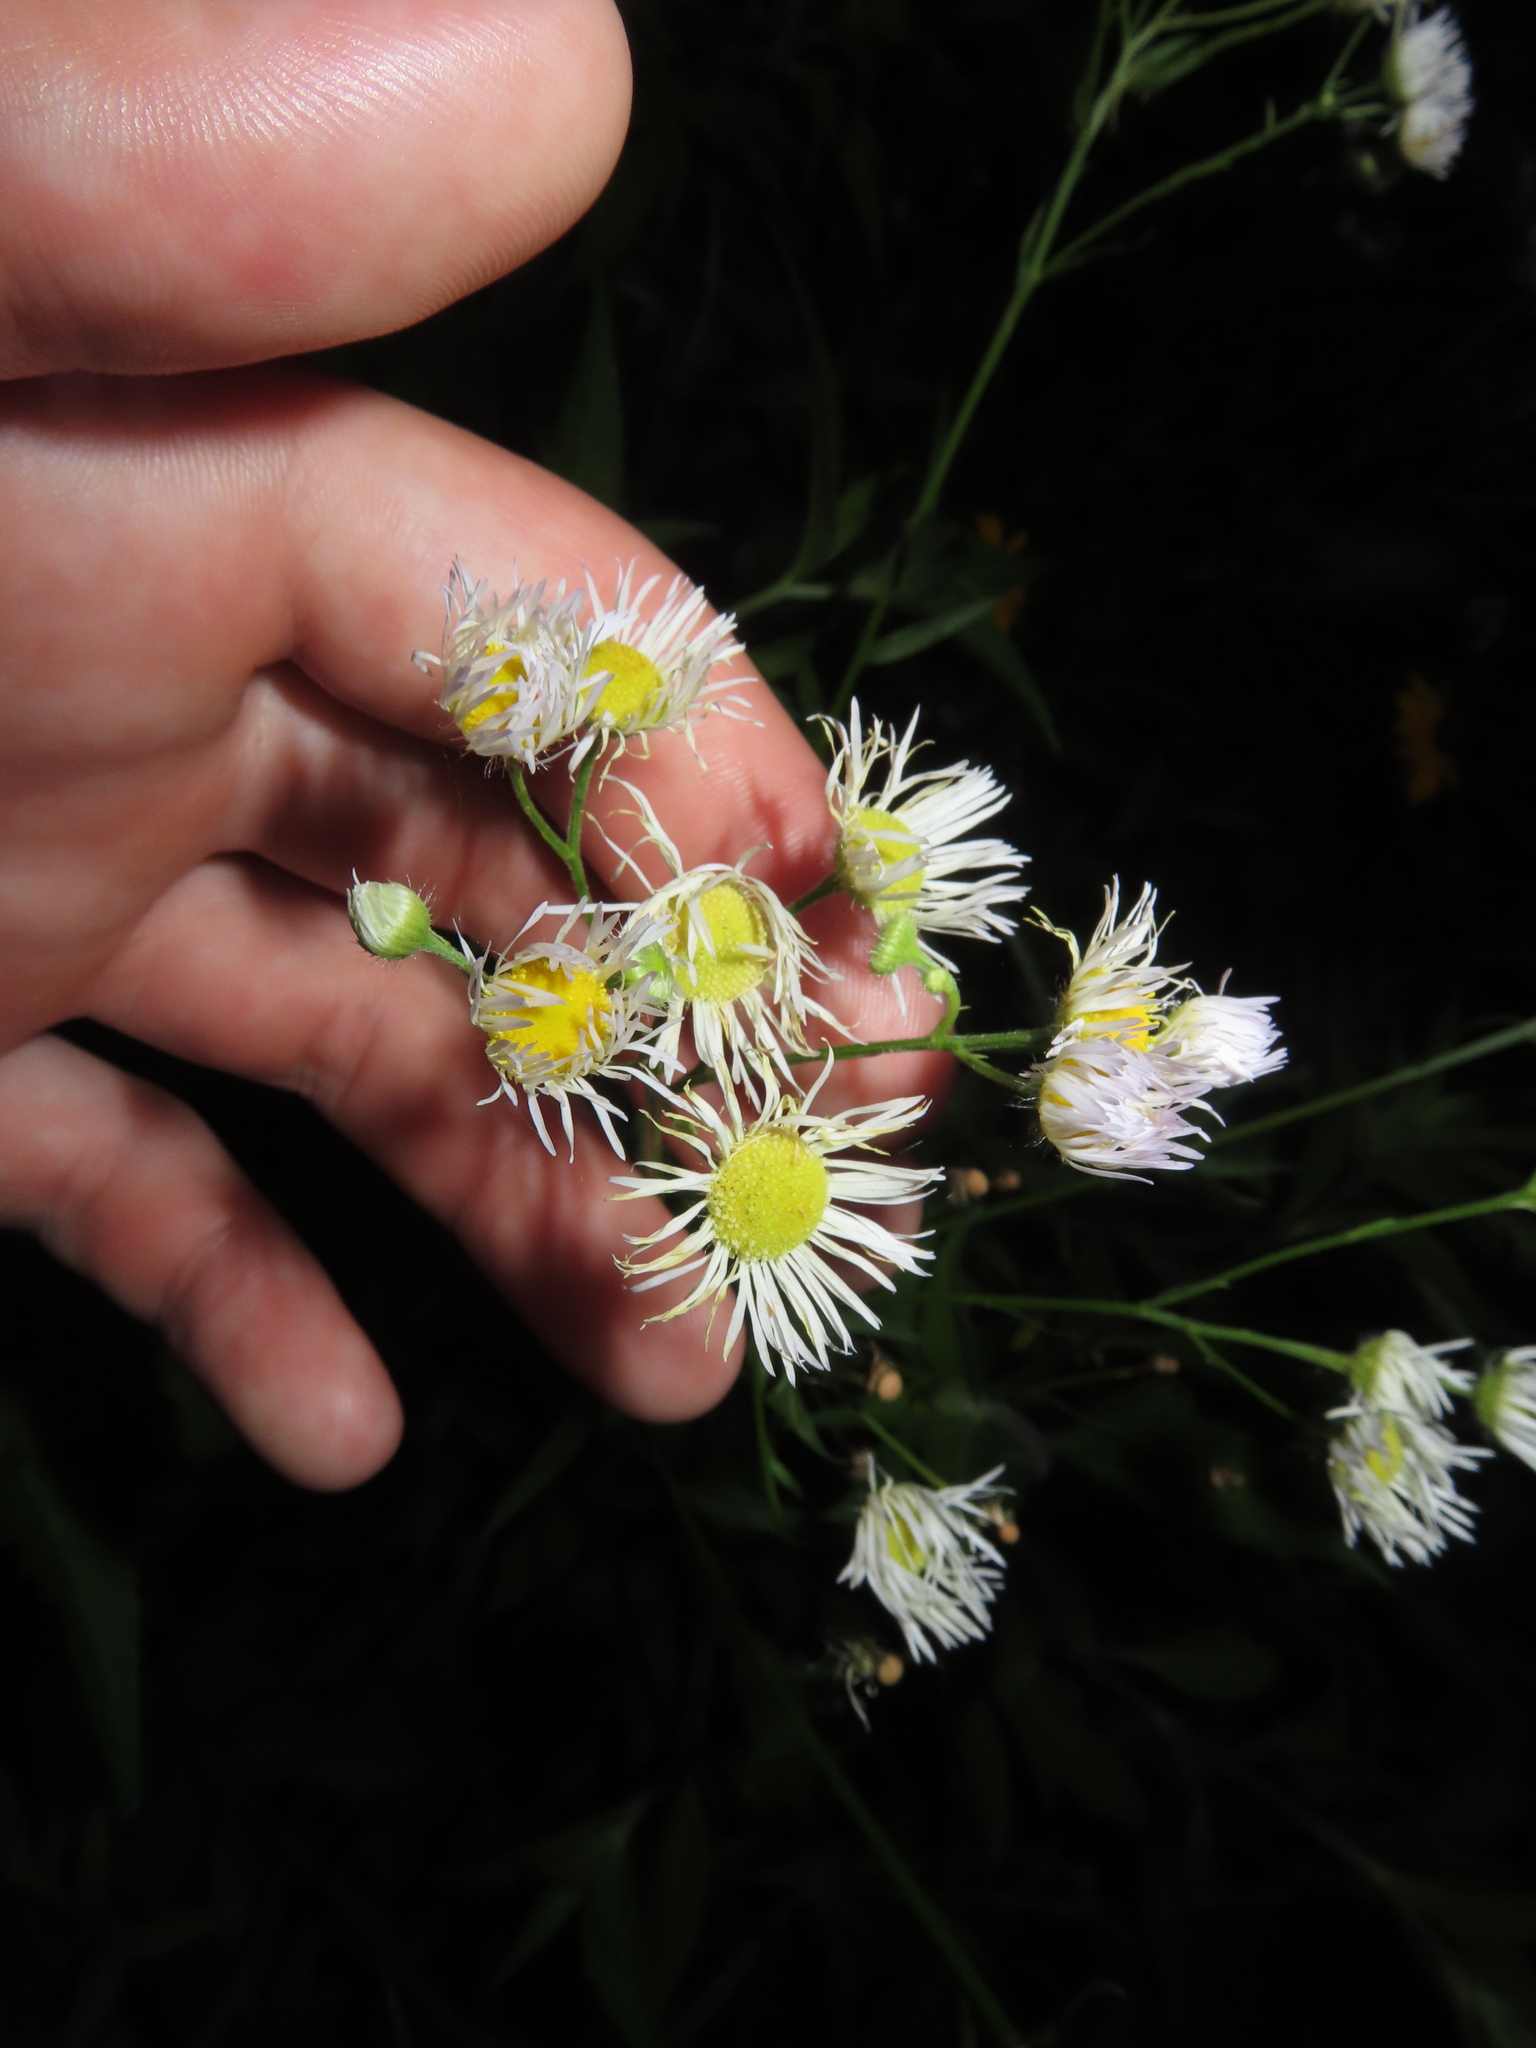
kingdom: Plantae
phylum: Tracheophyta
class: Magnoliopsida
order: Asterales
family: Asteraceae
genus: Erigeron
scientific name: Erigeron strigosus
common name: Common eastern fleabane
